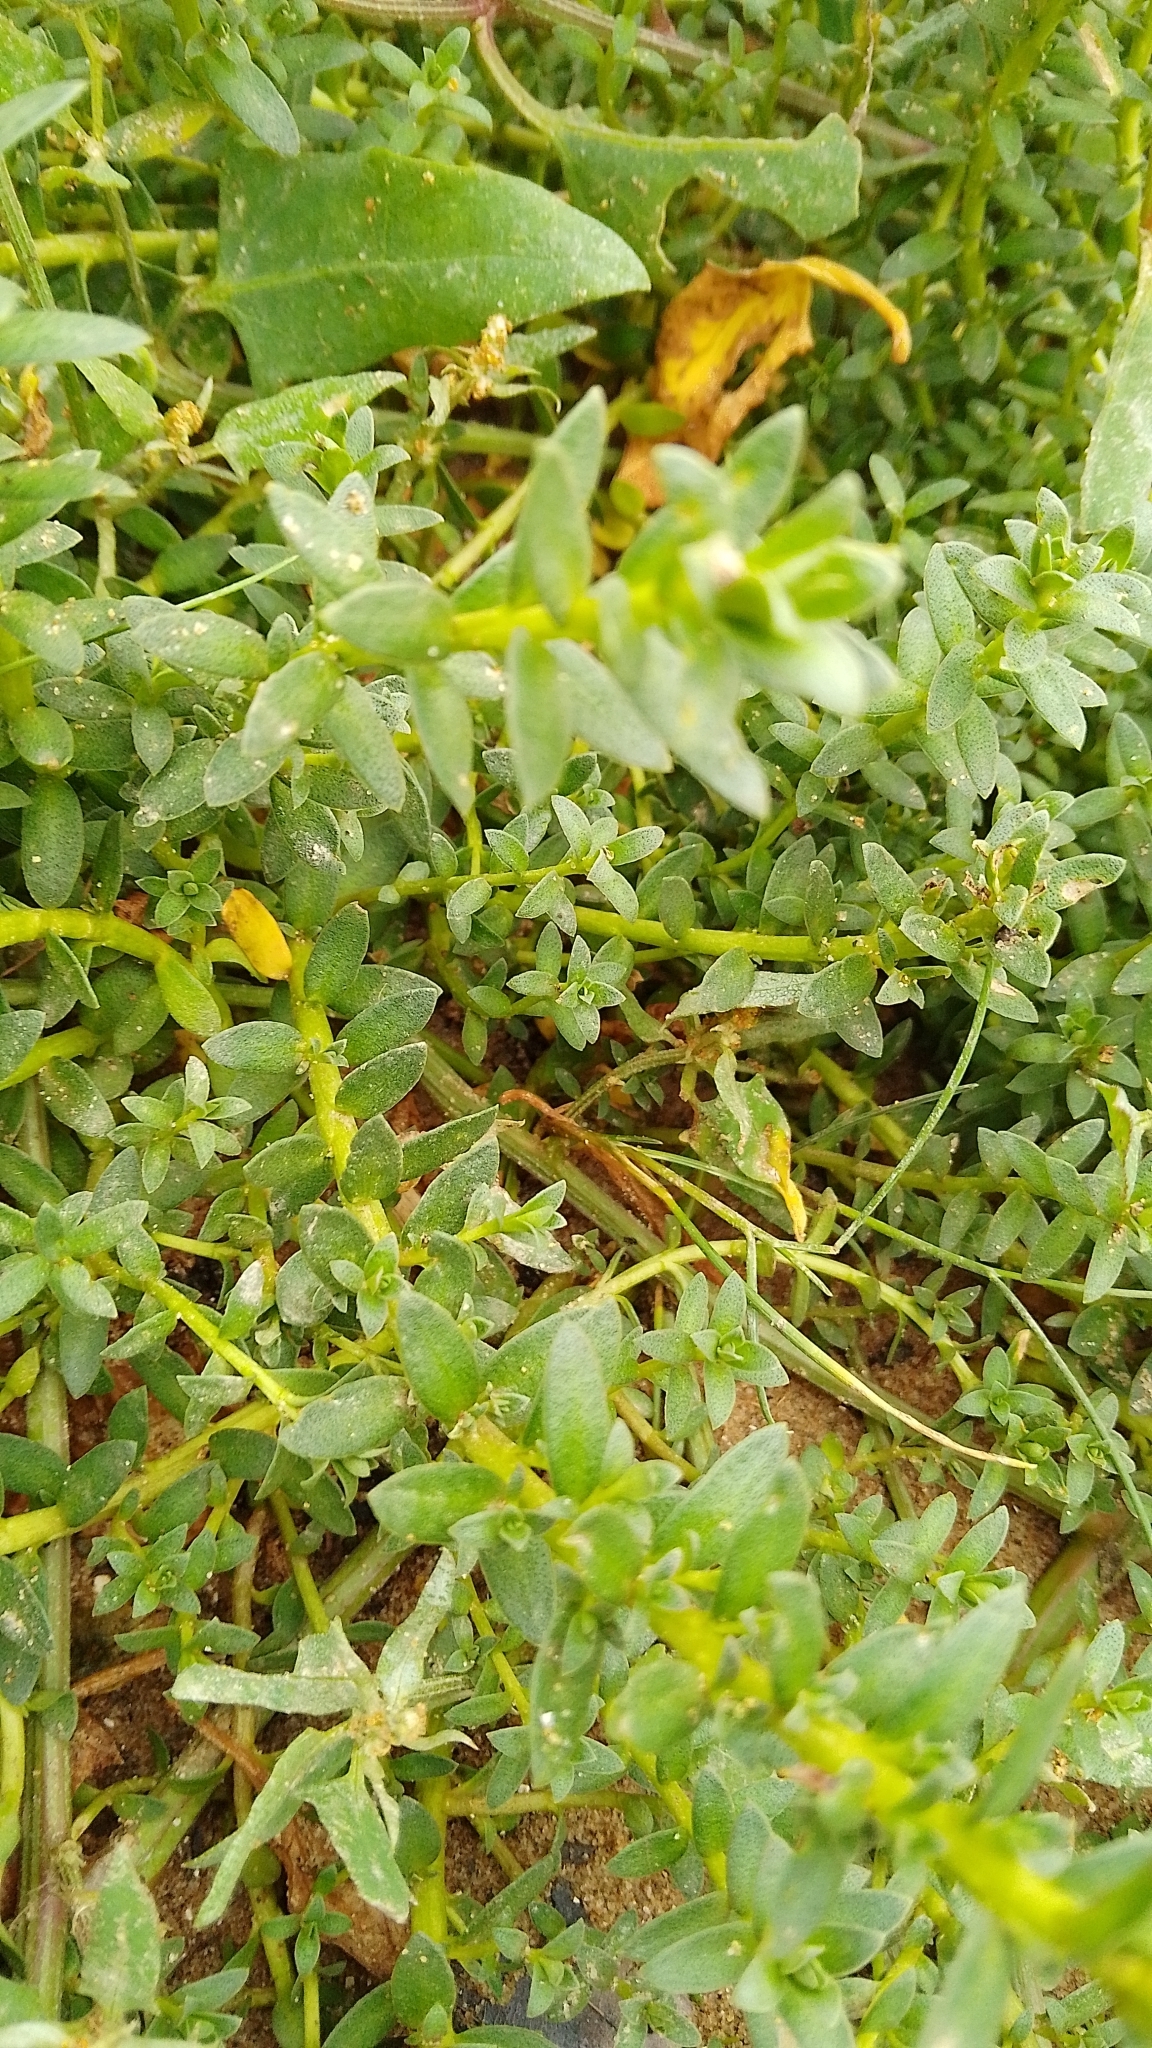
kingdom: Plantae
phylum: Tracheophyta
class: Magnoliopsida
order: Ericales
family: Primulaceae
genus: Lysimachia
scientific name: Lysimachia maritima
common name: Sea milkwort
